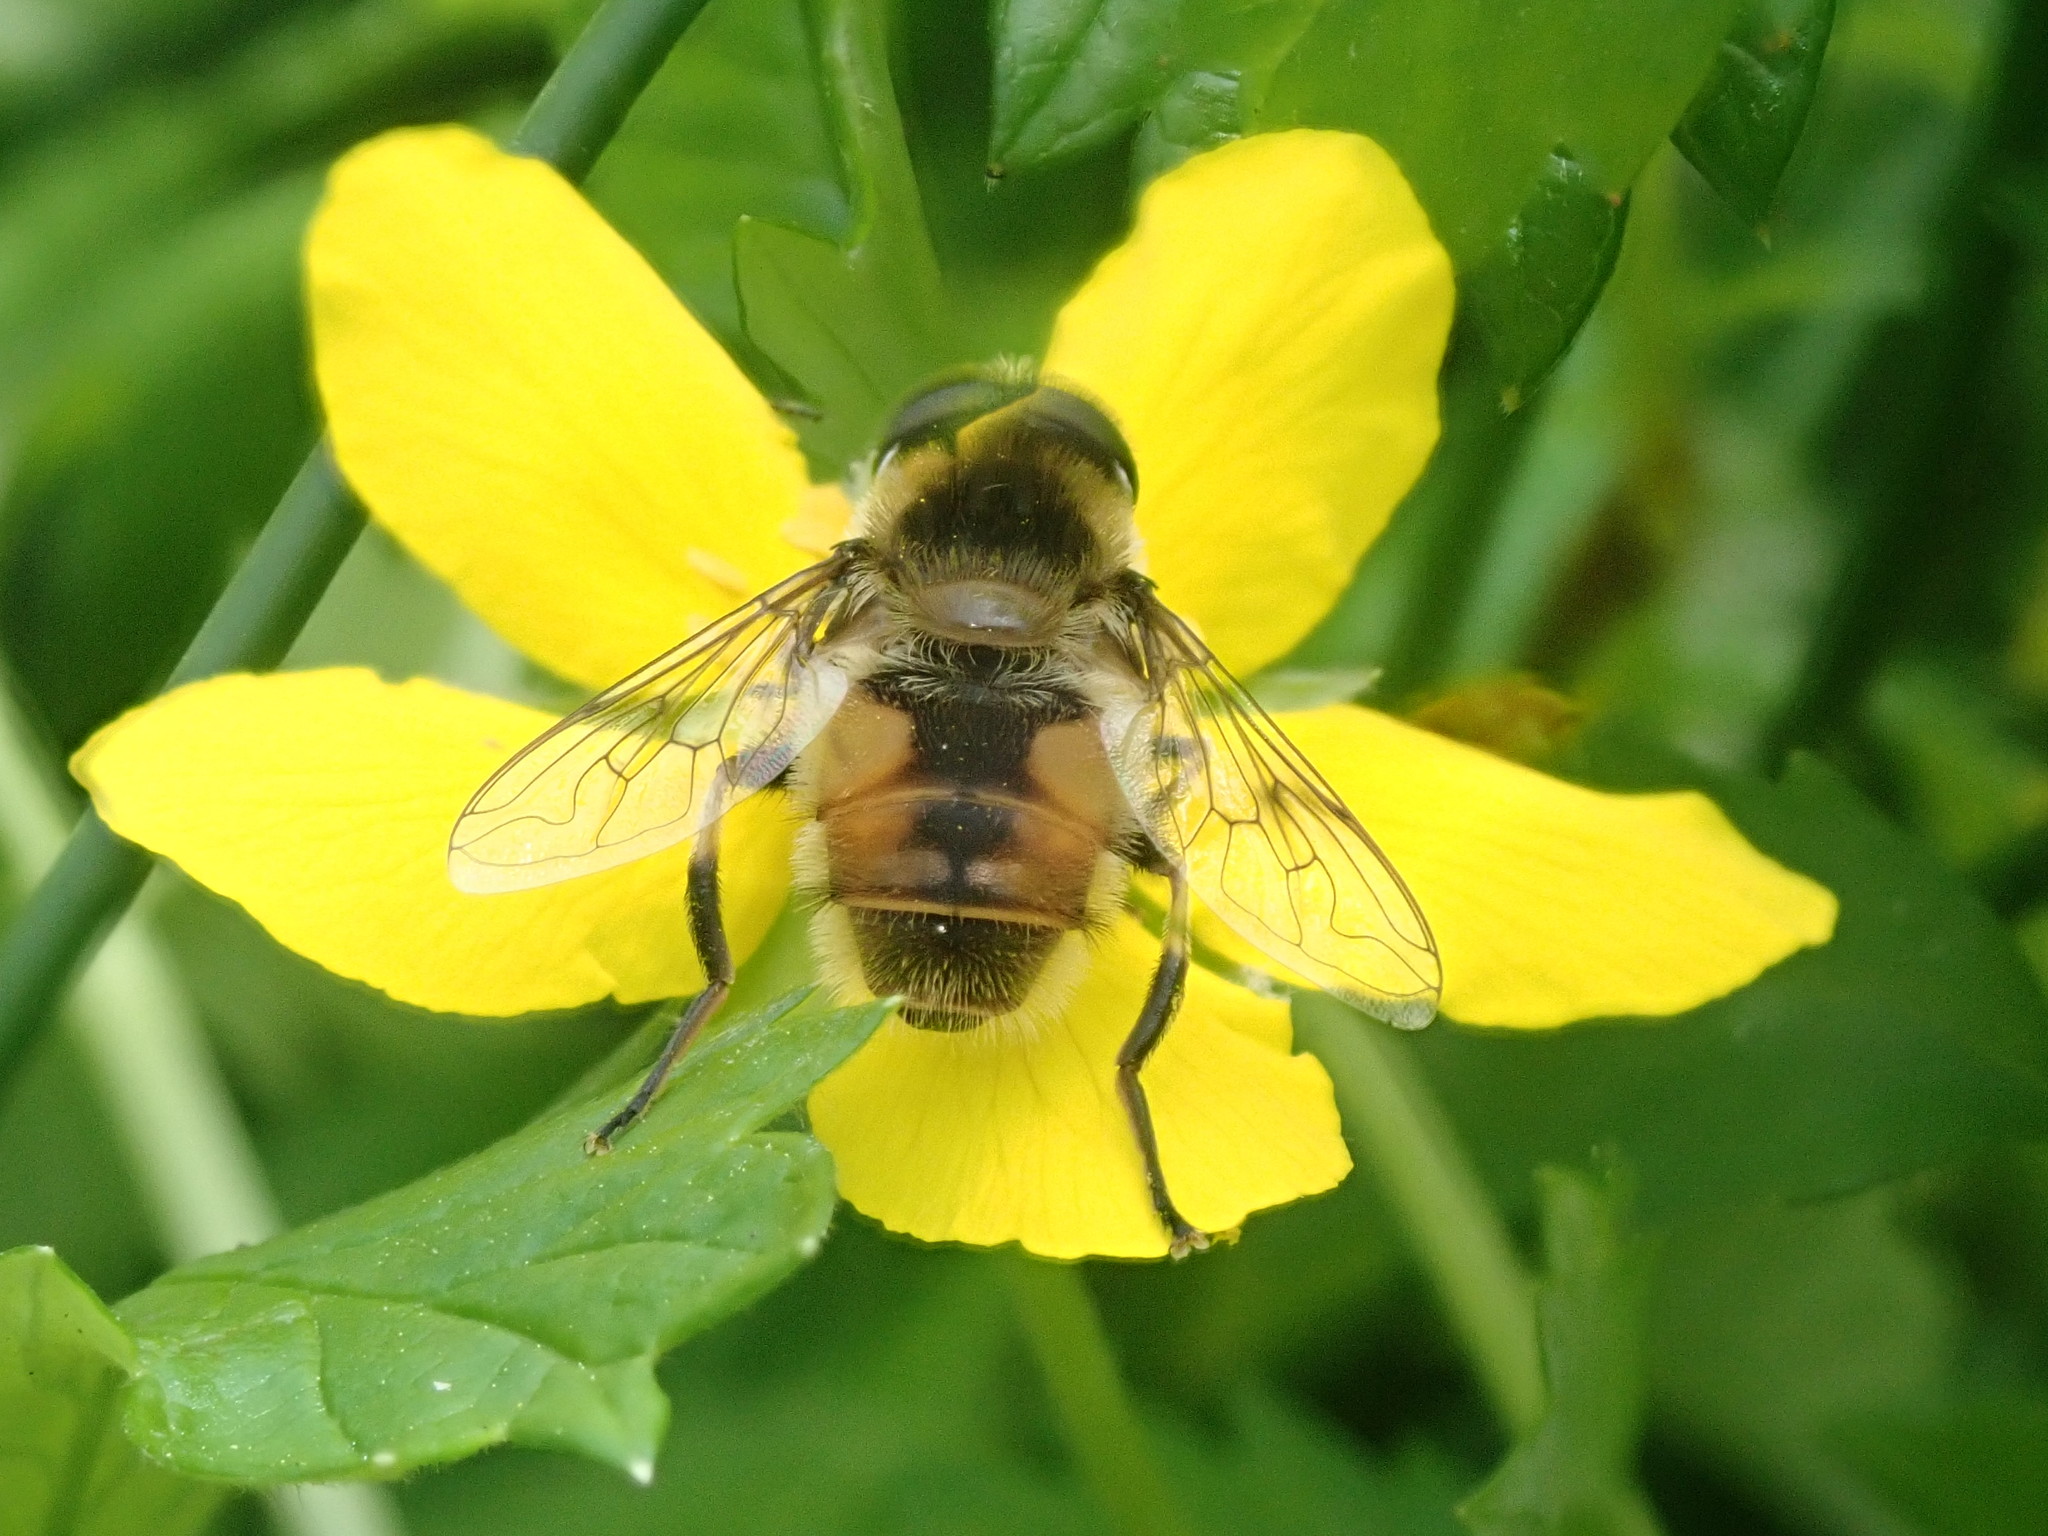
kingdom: Animalia
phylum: Arthropoda
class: Insecta
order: Diptera
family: Syrphidae
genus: Eristalis
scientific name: Eristalis anthophorina
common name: Orange-spotted drone fly
